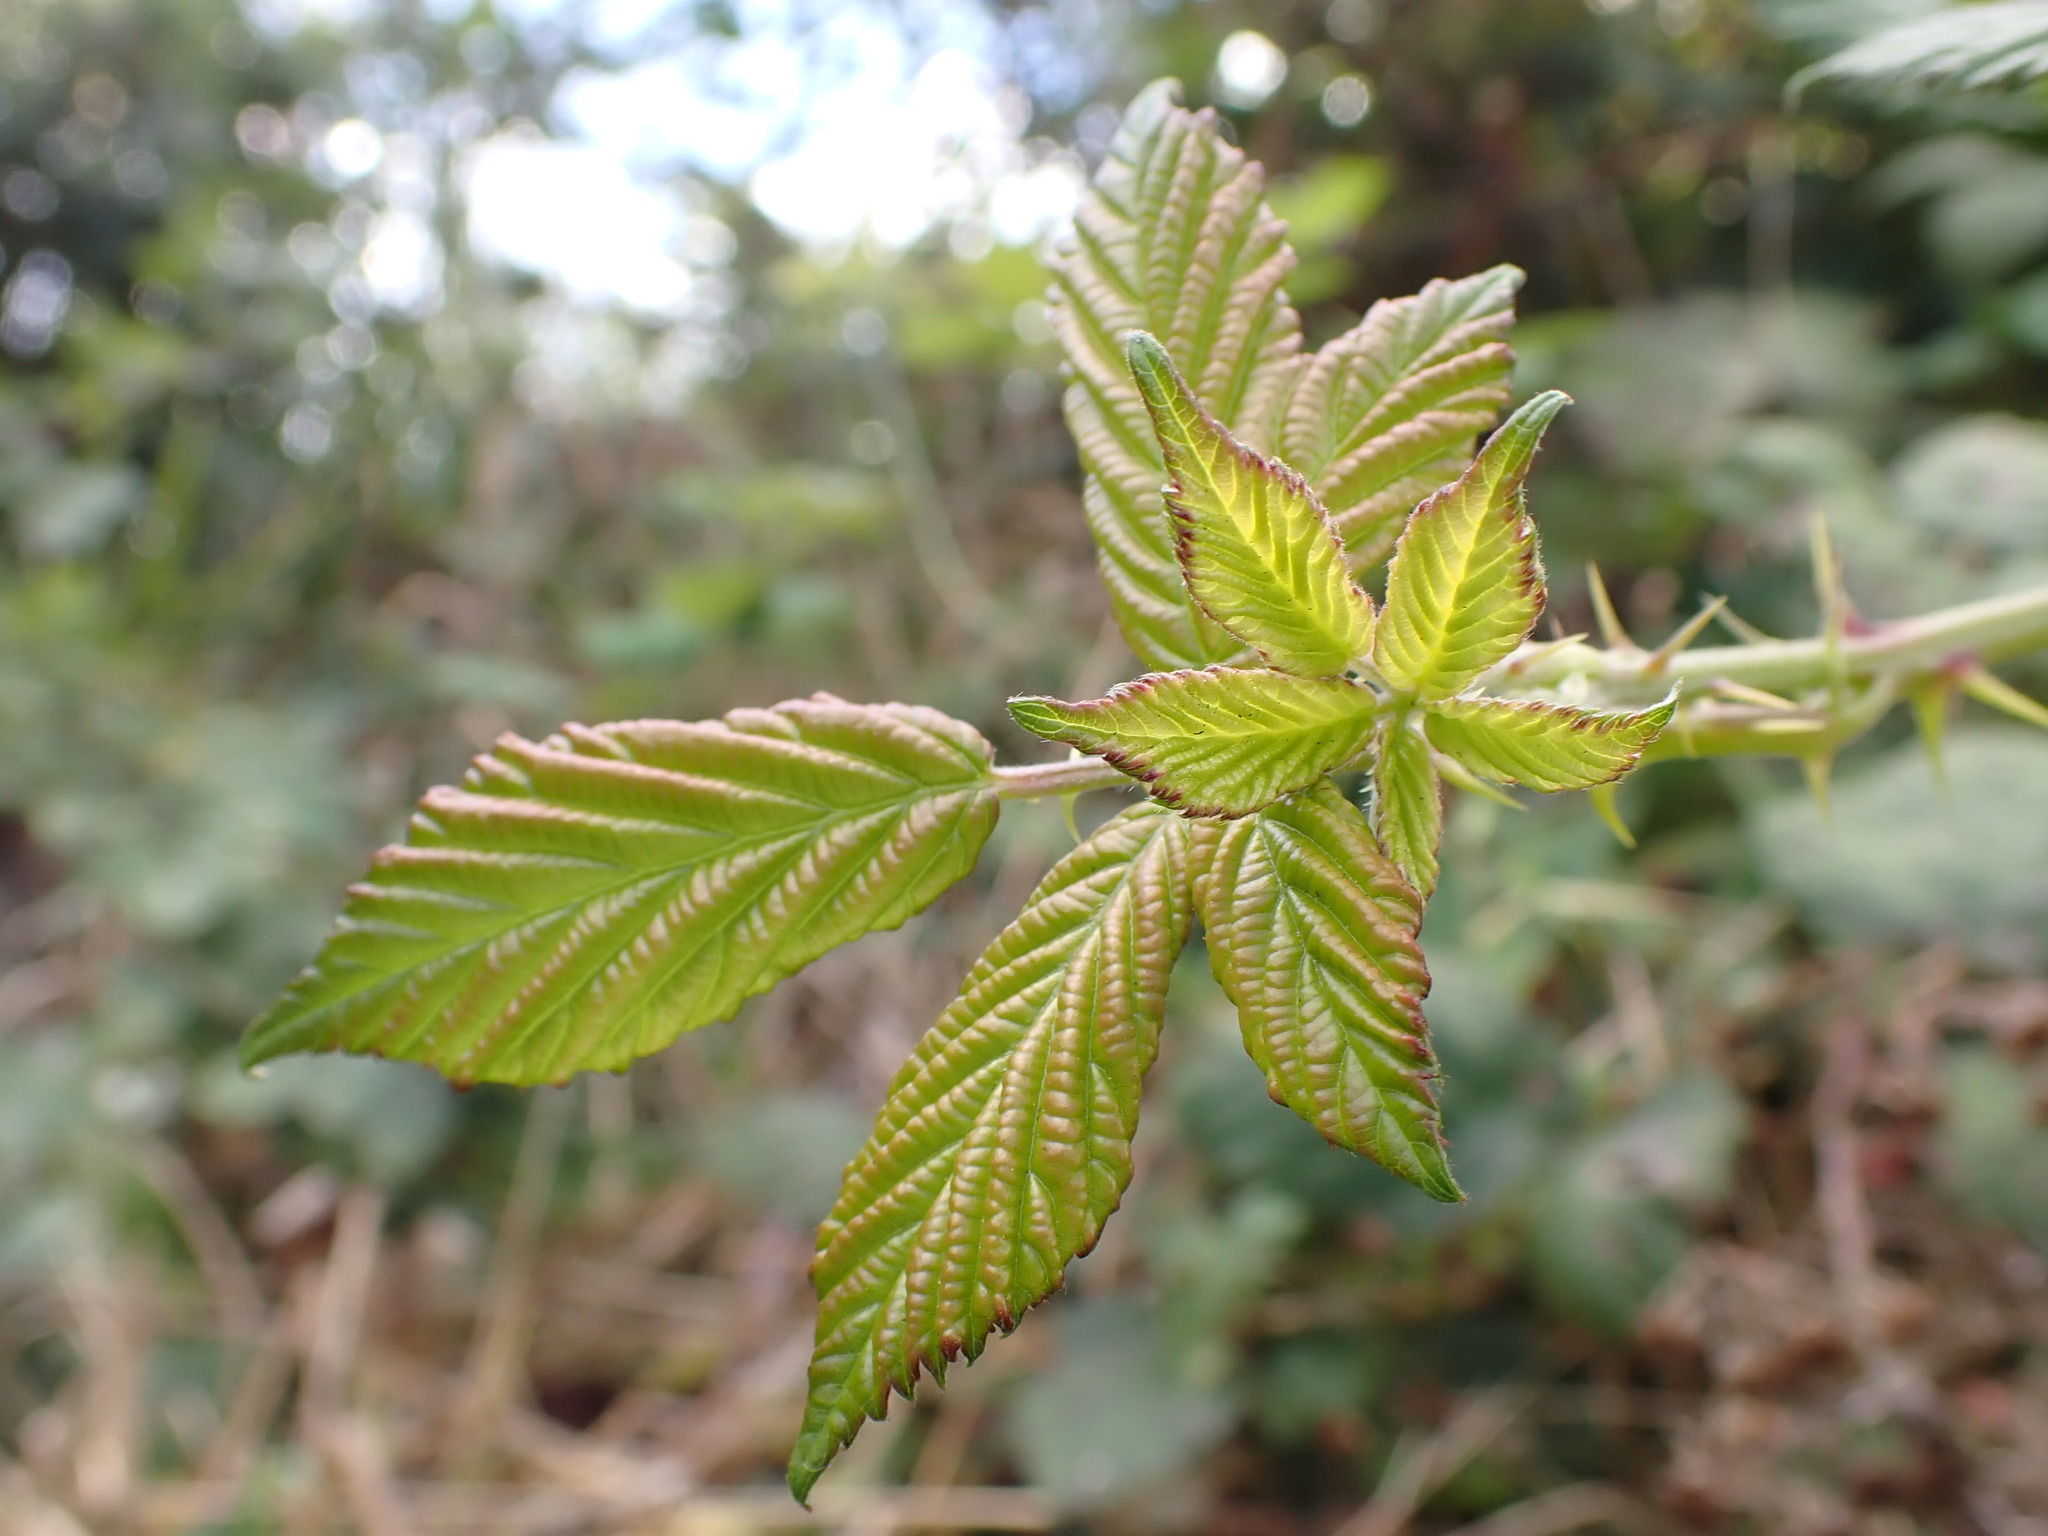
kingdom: Plantae
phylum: Tracheophyta
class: Magnoliopsida
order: Rosales
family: Rosaceae
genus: Rubus
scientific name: Rubus
